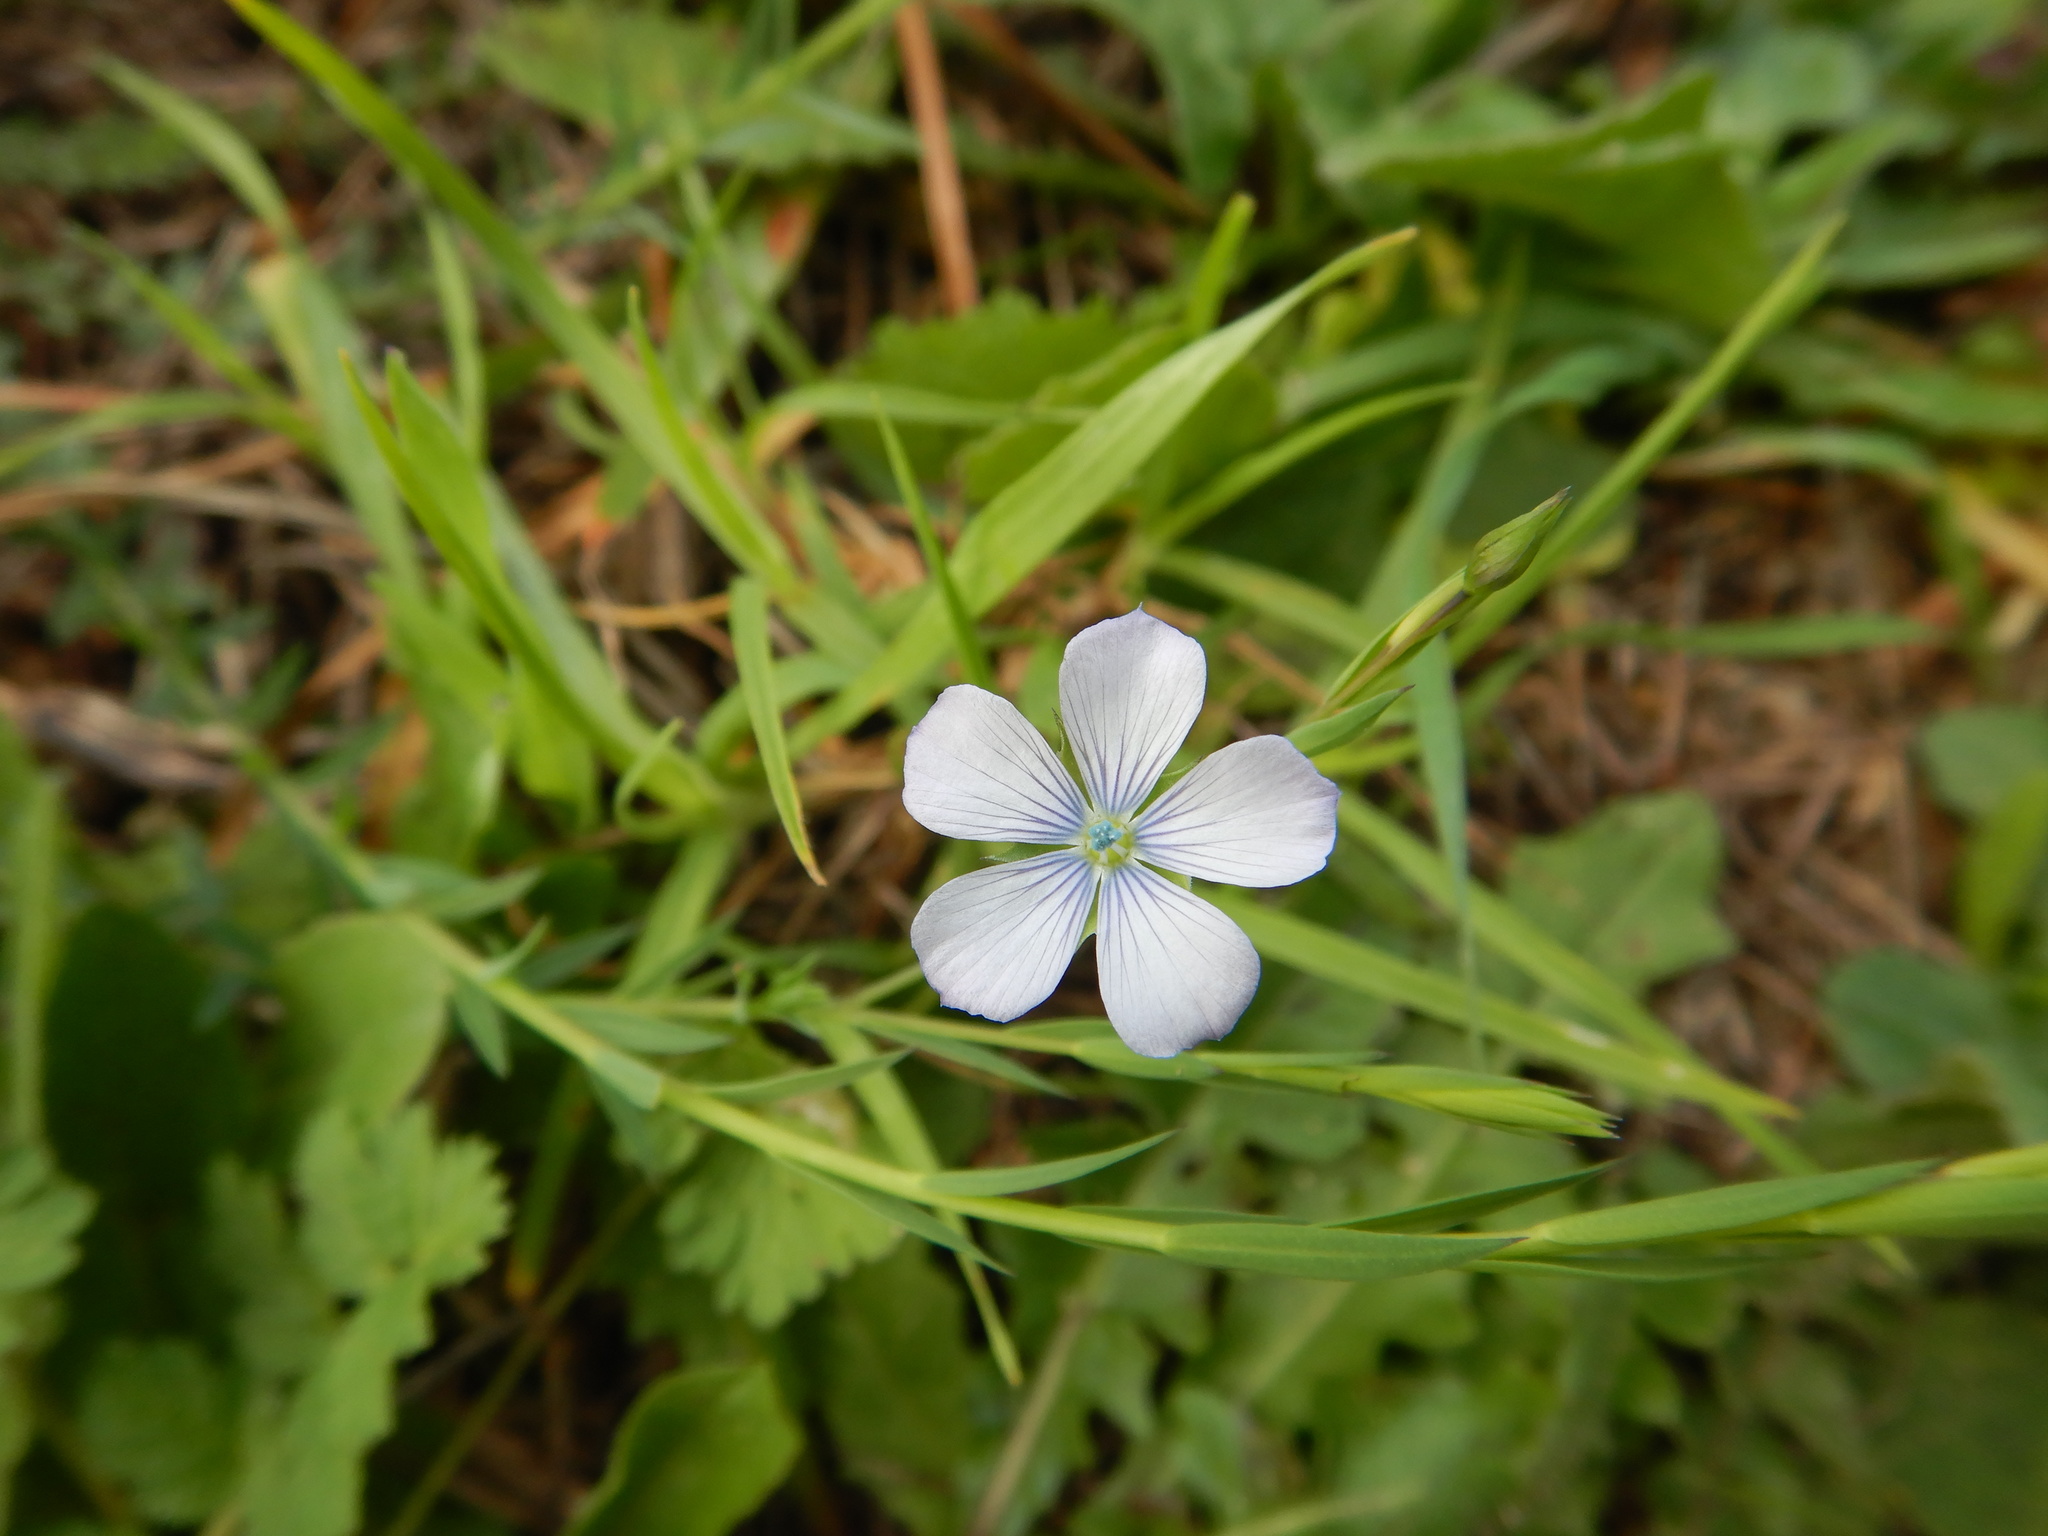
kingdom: Plantae
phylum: Tracheophyta
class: Magnoliopsida
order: Malpighiales
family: Linaceae
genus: Linum
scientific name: Linum bienne
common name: Pale flax
